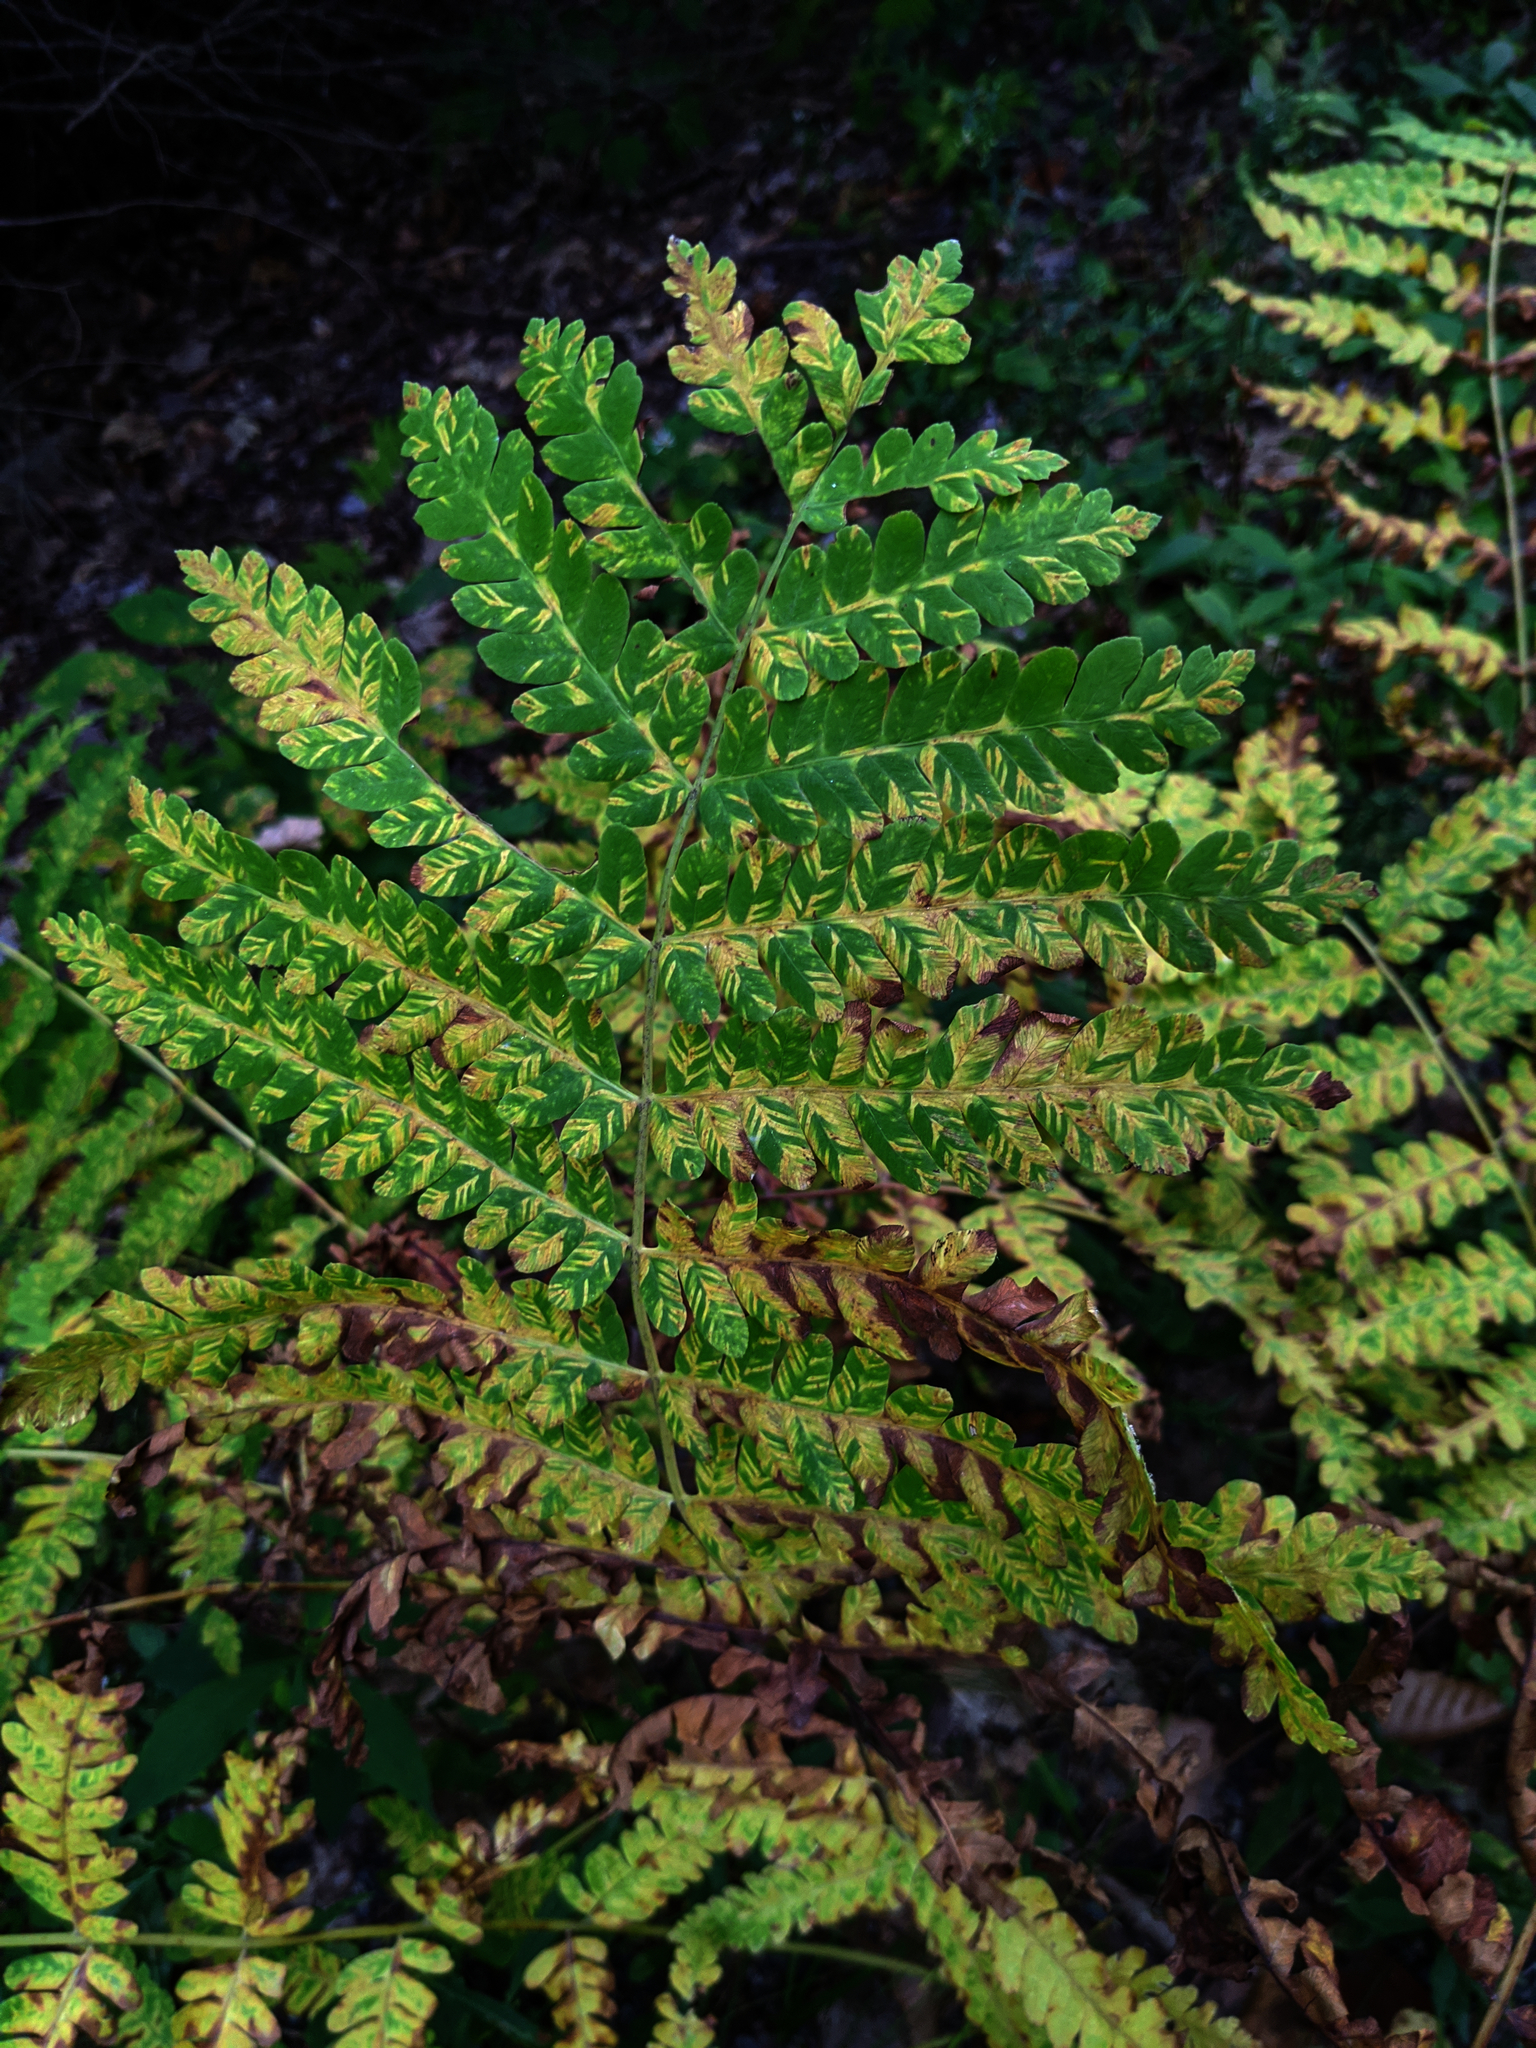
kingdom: Plantae
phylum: Tracheophyta
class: Polypodiopsida
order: Osmundales
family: Osmundaceae
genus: Claytosmunda
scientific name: Claytosmunda claytoniana
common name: Clayton's fern
